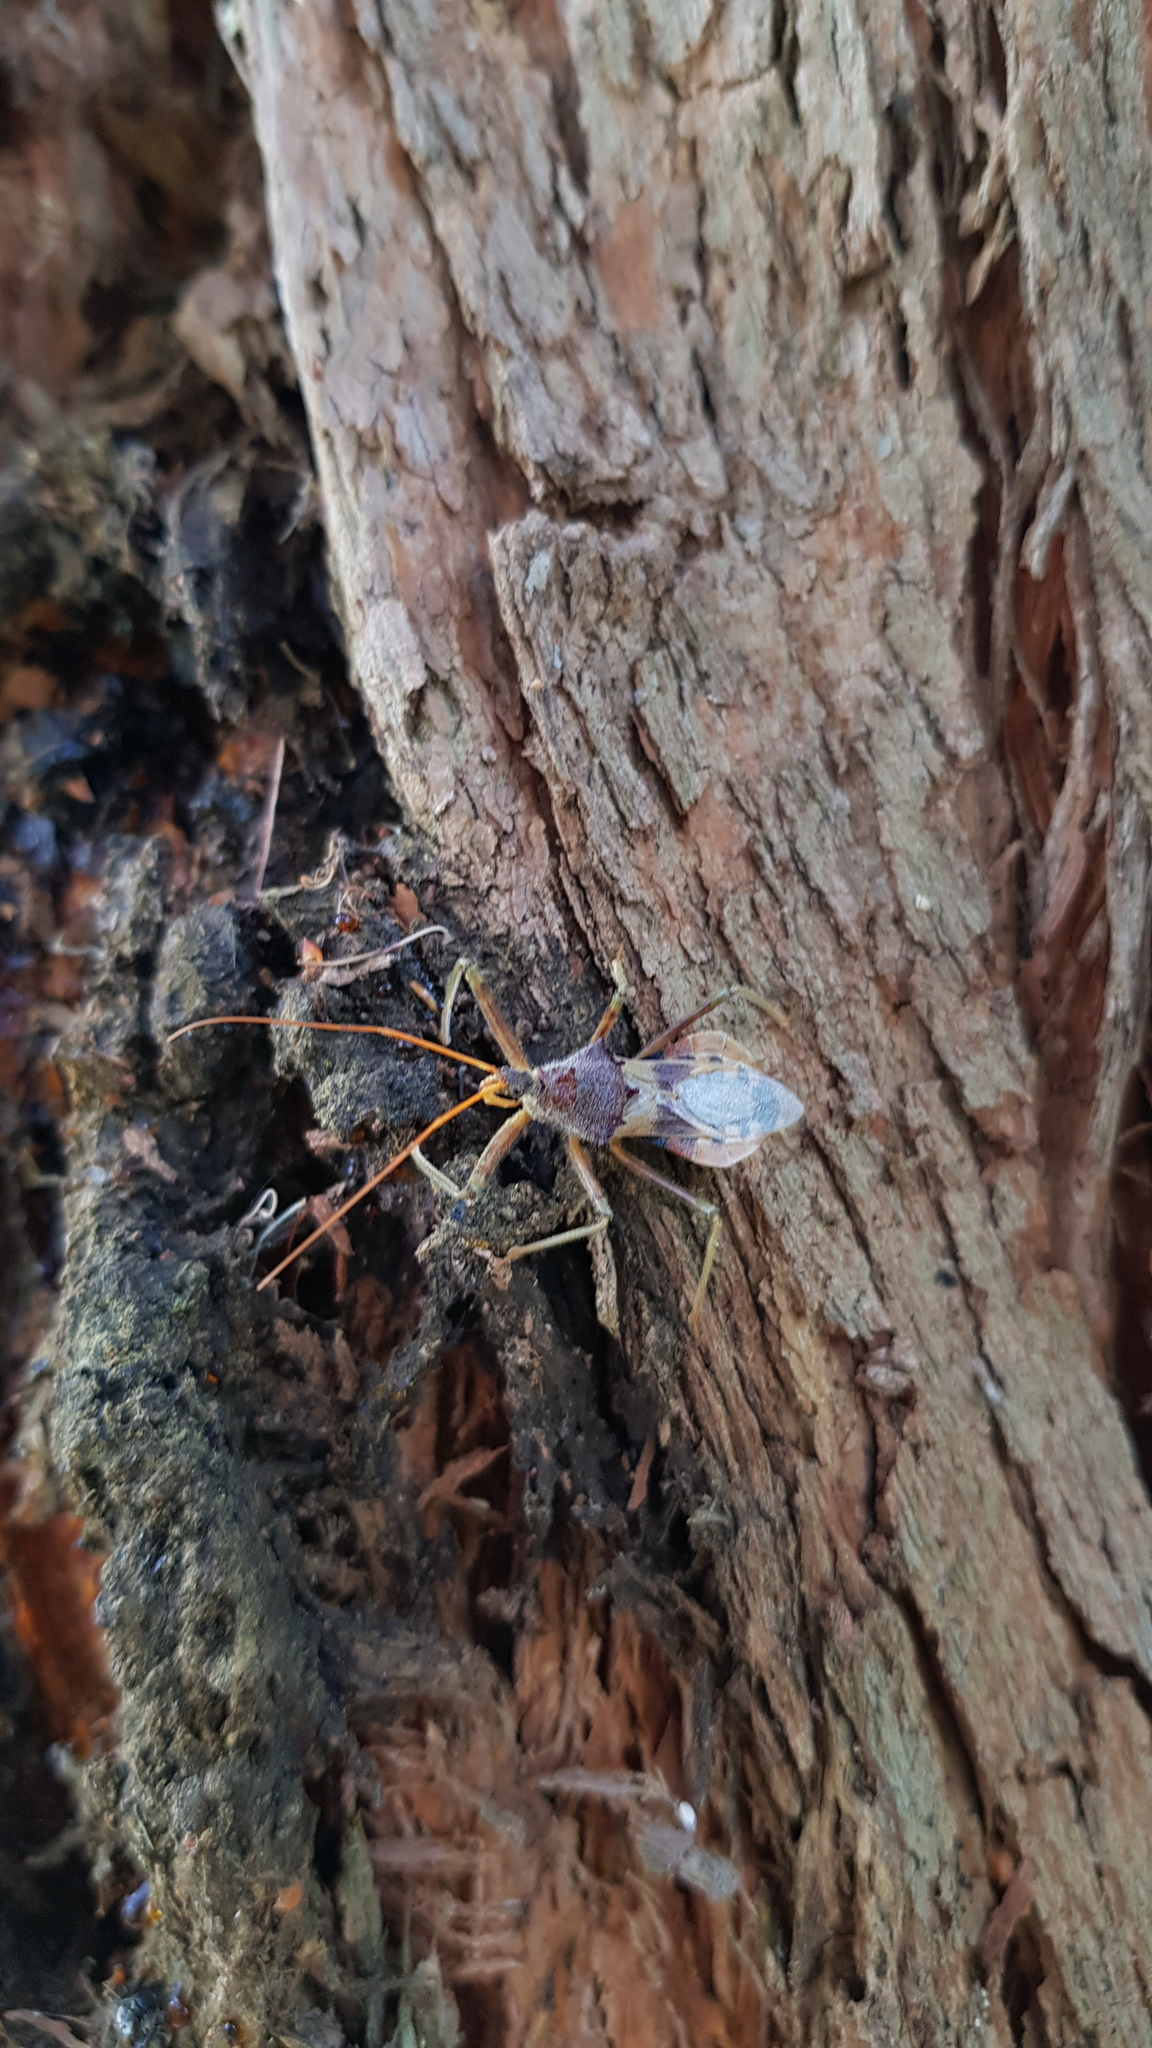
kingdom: Animalia
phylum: Arthropoda
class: Insecta
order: Hemiptera
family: Reduviidae
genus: Pristhesancus
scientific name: Pristhesancus plagipennis
